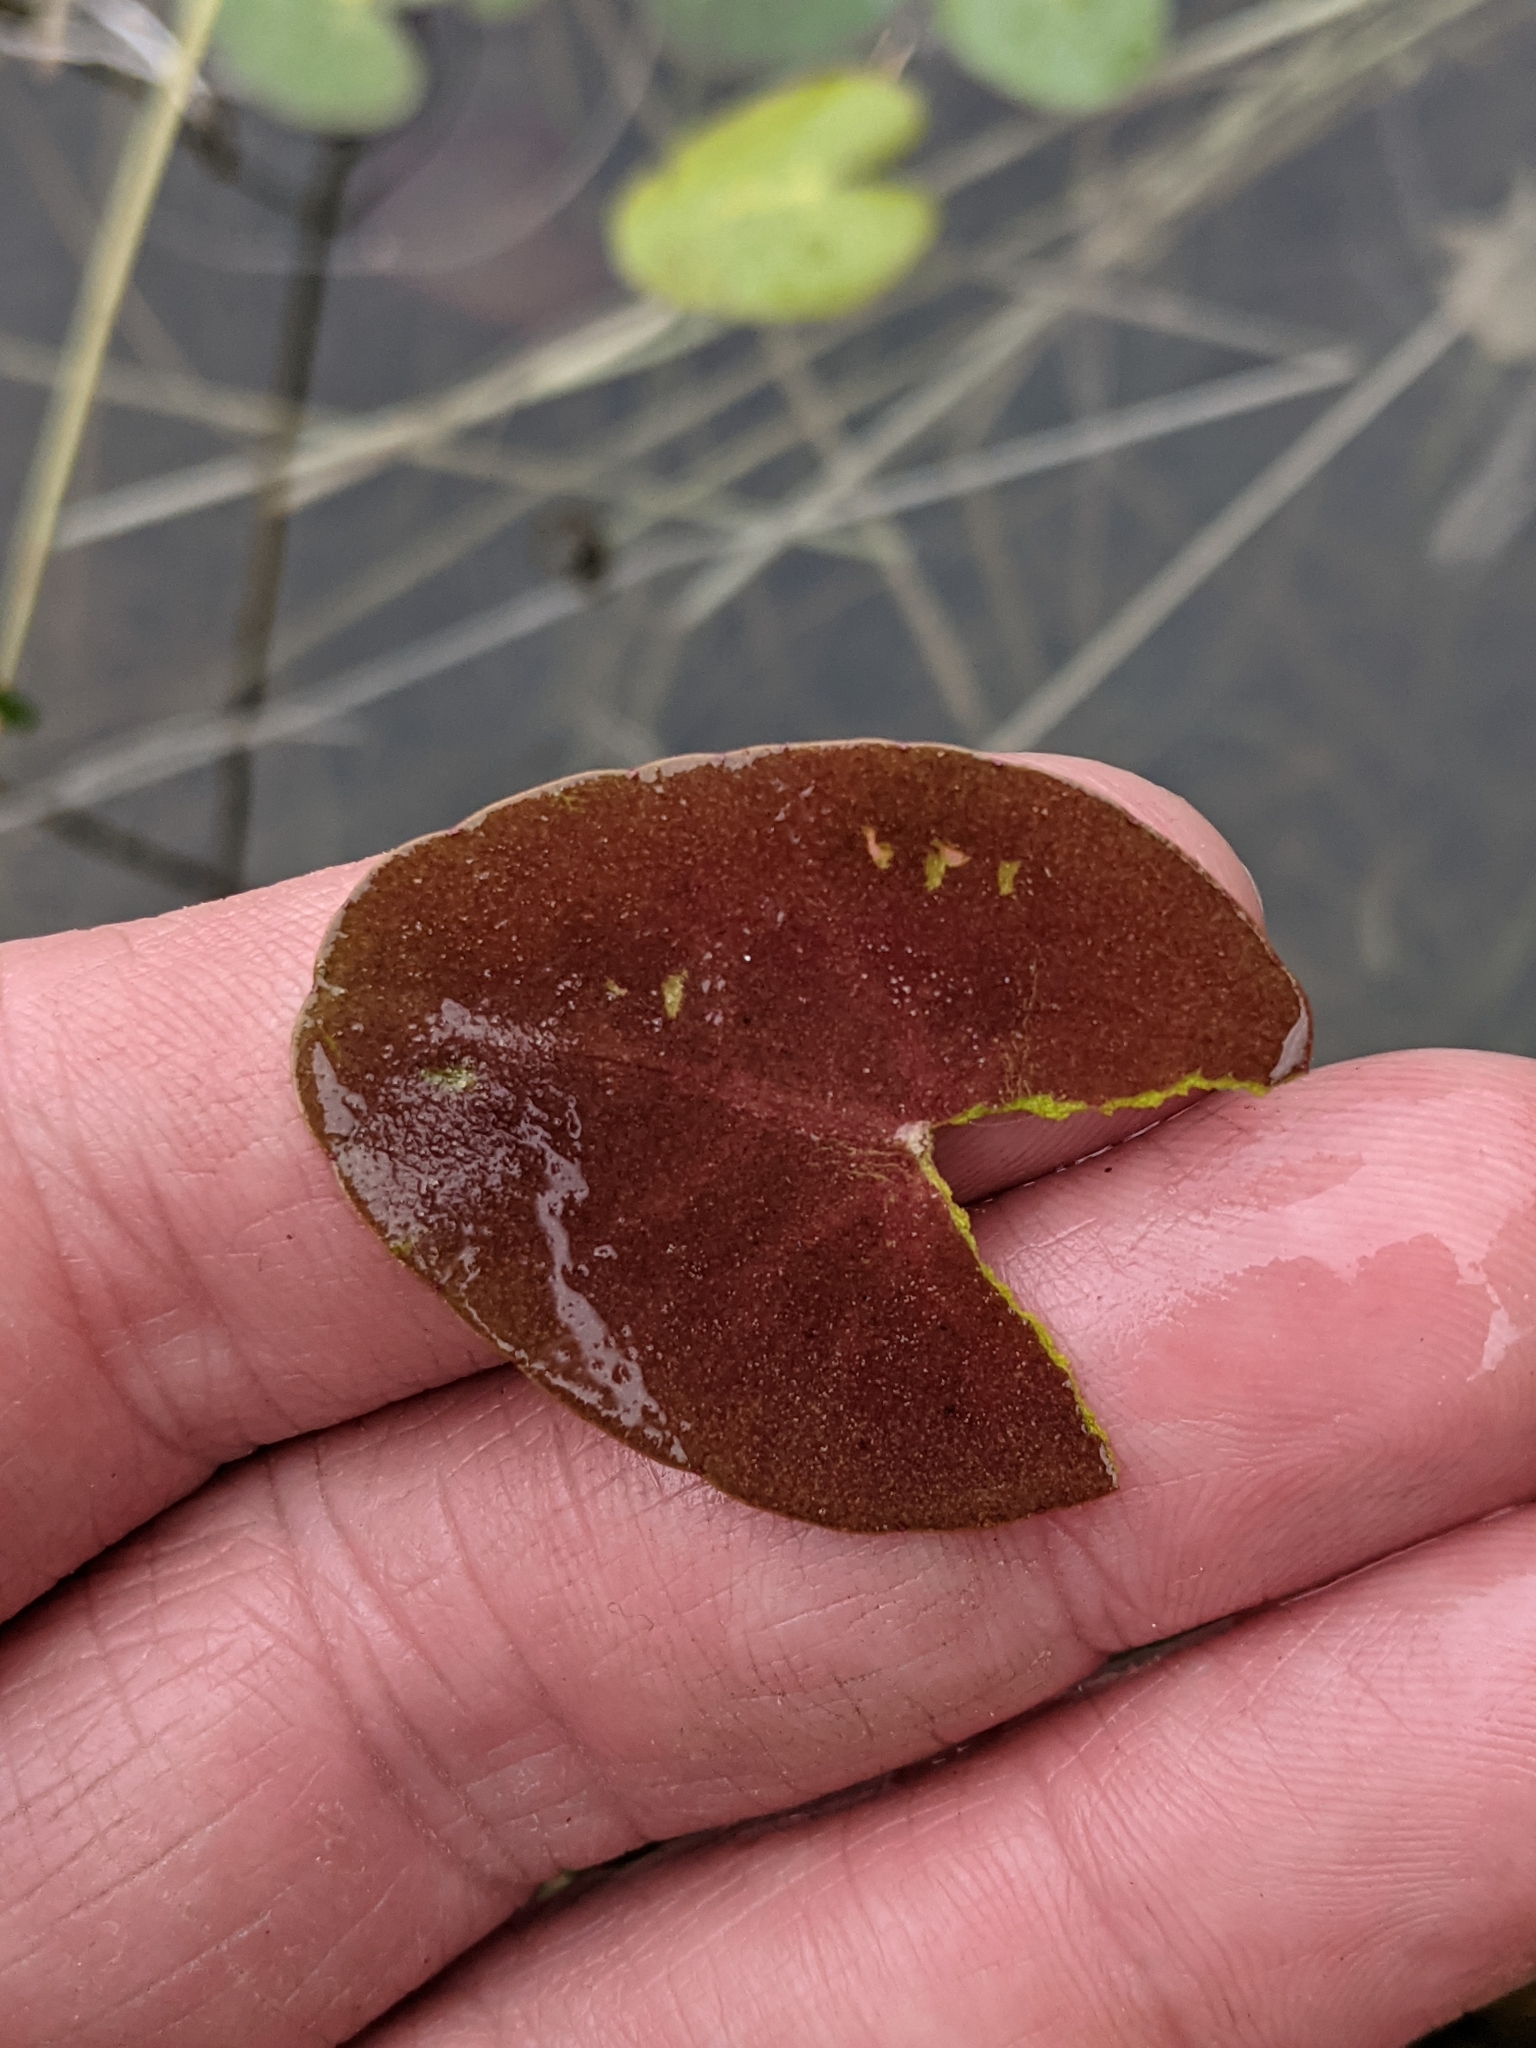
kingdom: Plantae
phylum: Tracheophyta
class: Magnoliopsida
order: Asterales
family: Menyanthaceae
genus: Nymphoides
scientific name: Nymphoides cordata
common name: Eight-angled floatingheart
